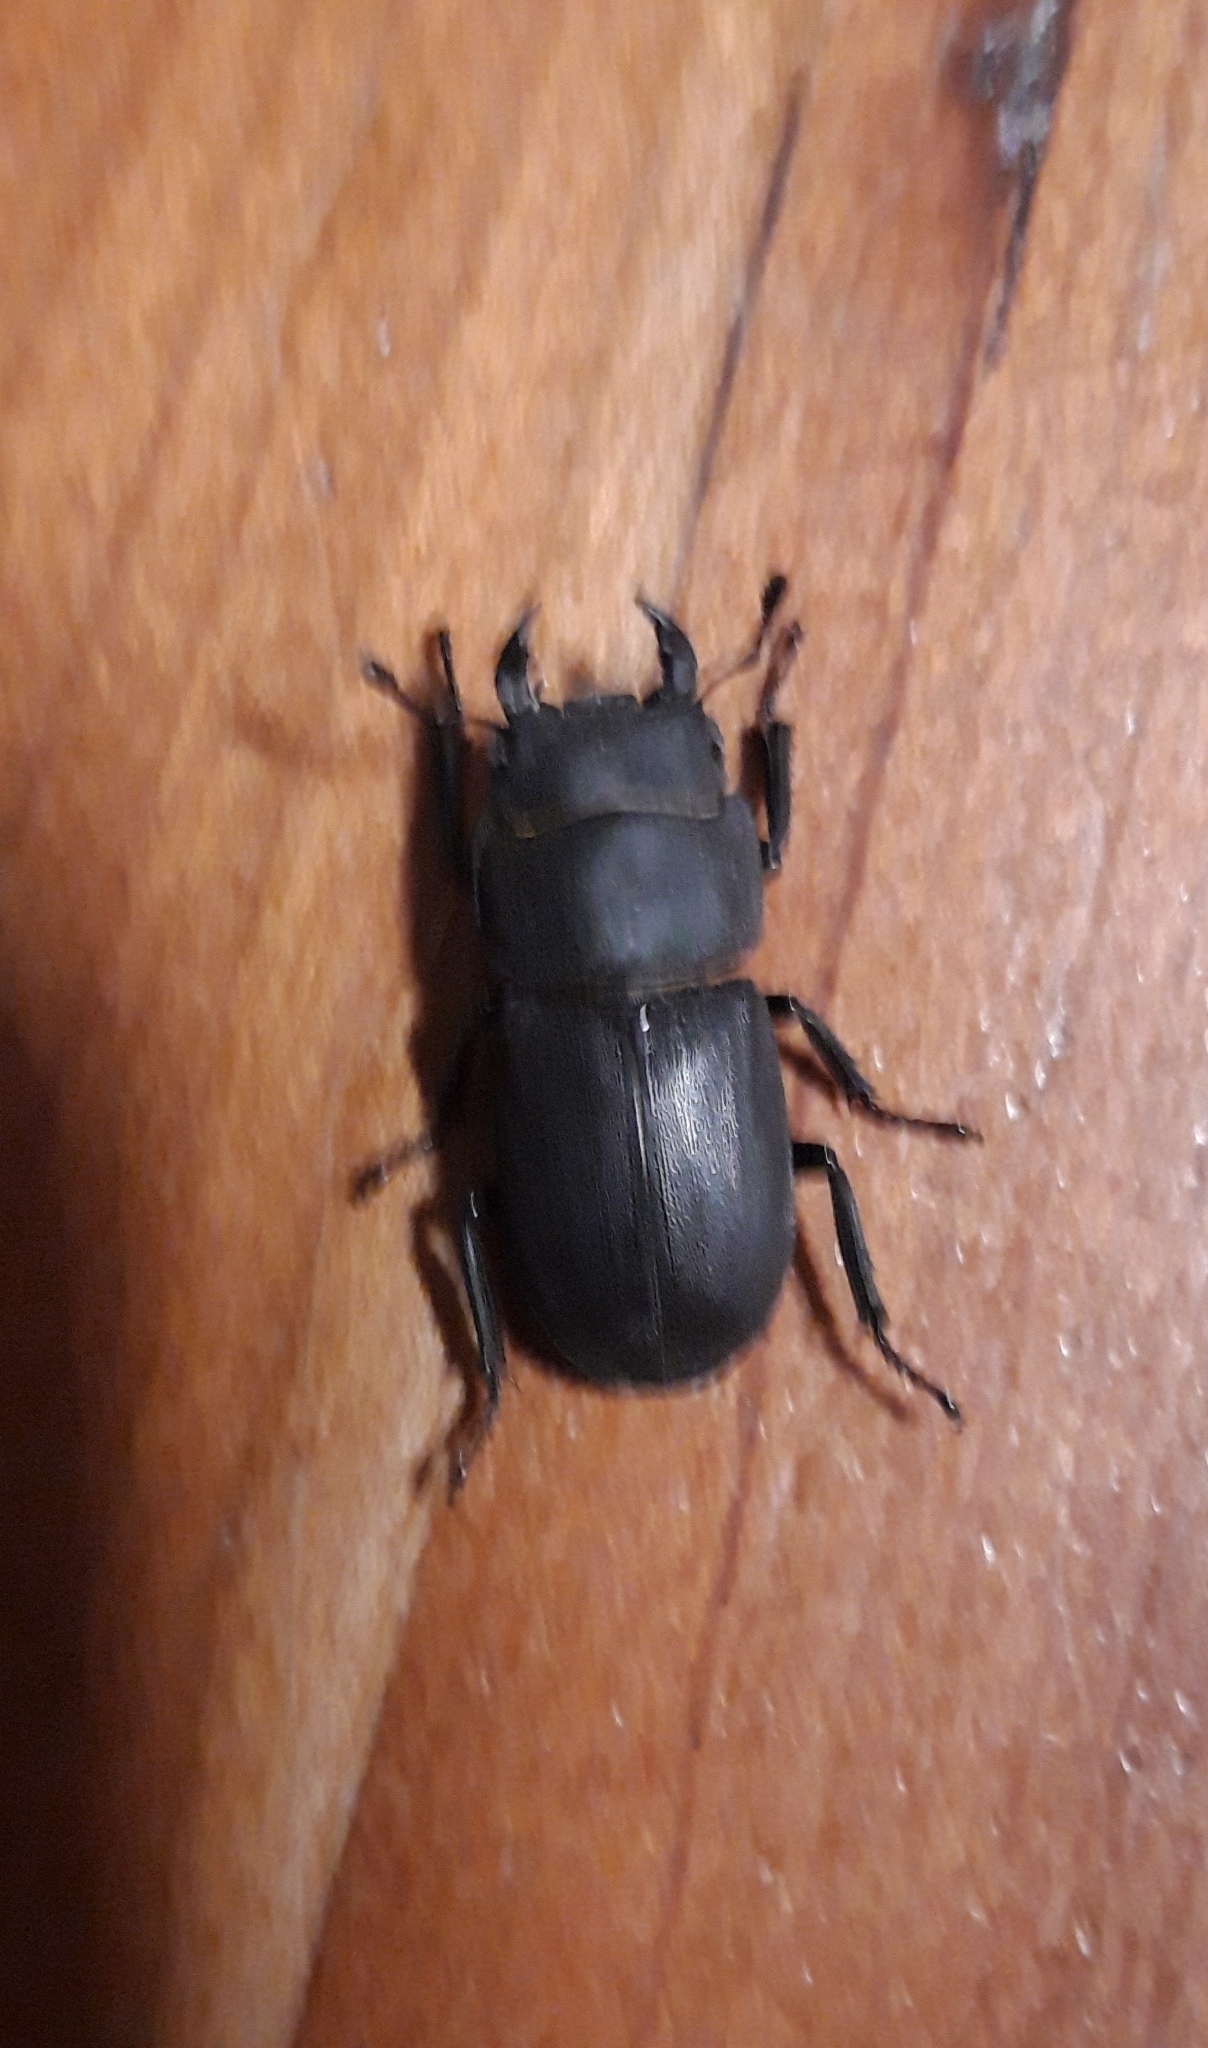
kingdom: Animalia
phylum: Arthropoda
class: Insecta
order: Coleoptera
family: Lucanidae
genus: Dorcus
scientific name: Dorcus parallelipipedus
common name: Lesser stag beetle
